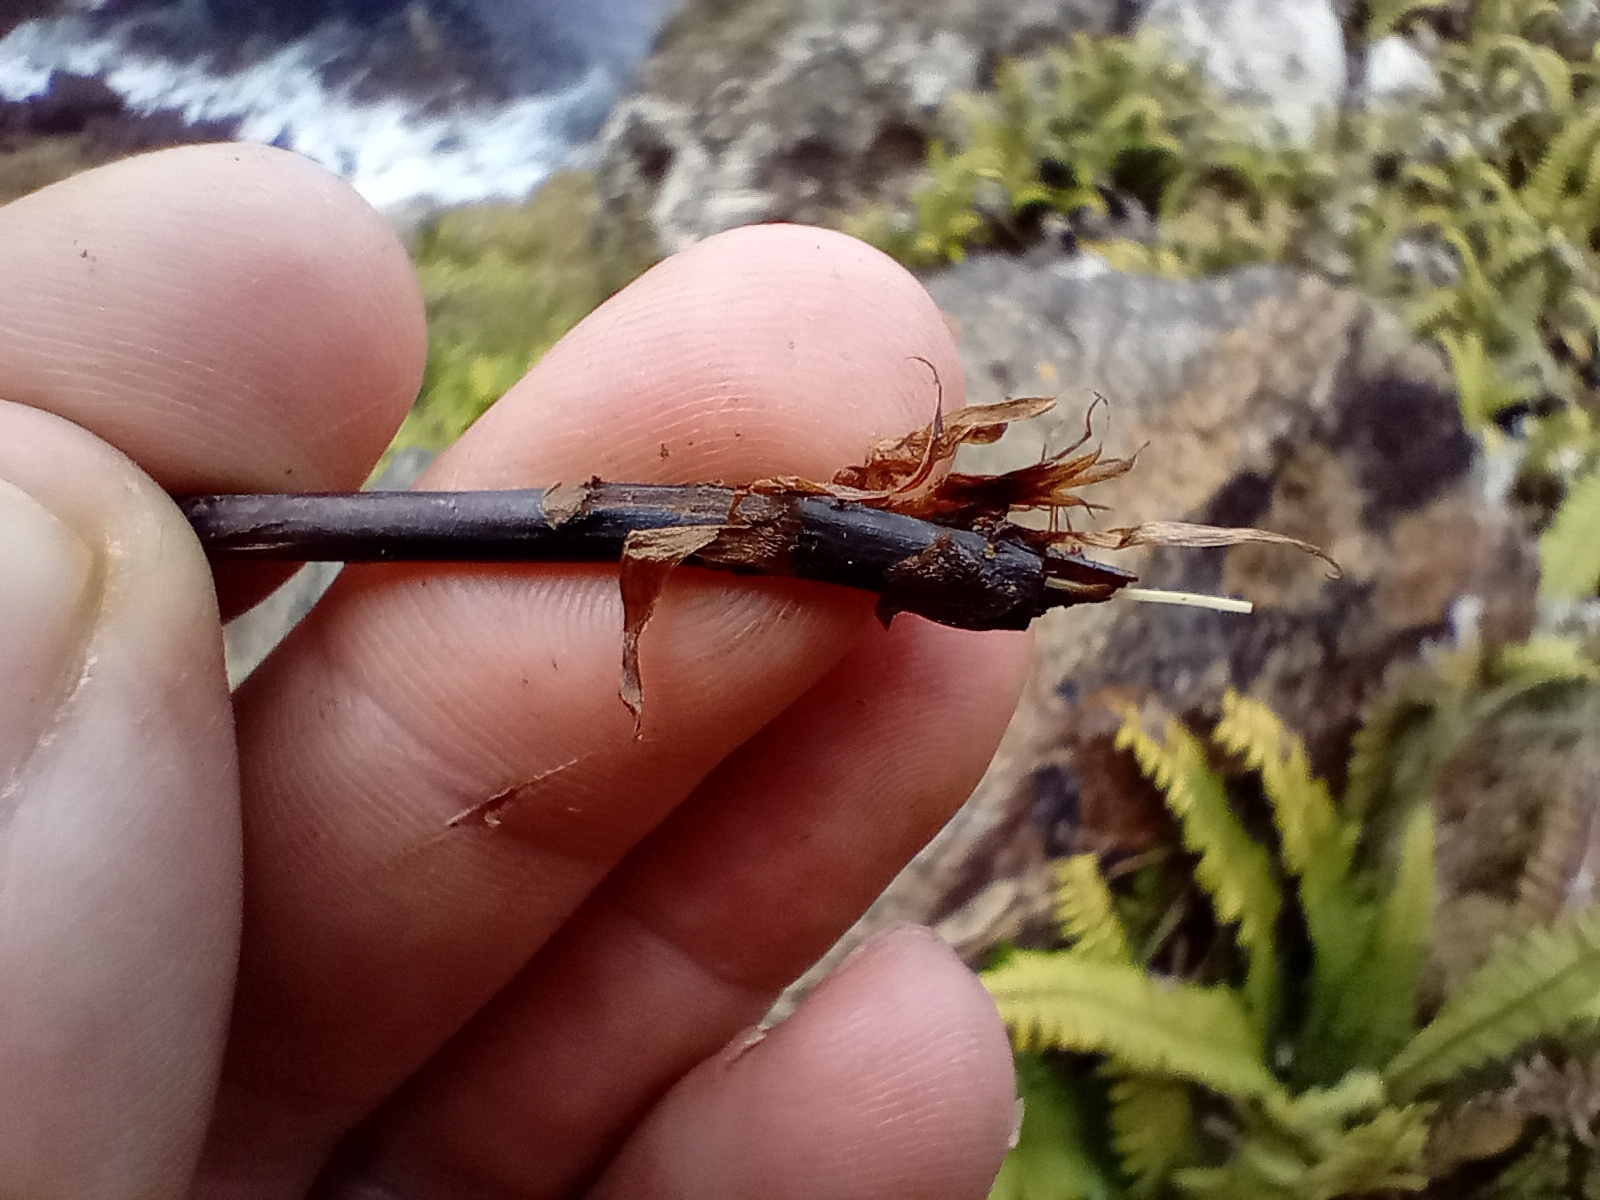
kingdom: Plantae
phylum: Tracheophyta
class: Polypodiopsida
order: Polypodiales
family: Blechnaceae
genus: Austroblechnum
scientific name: Austroblechnum durum
